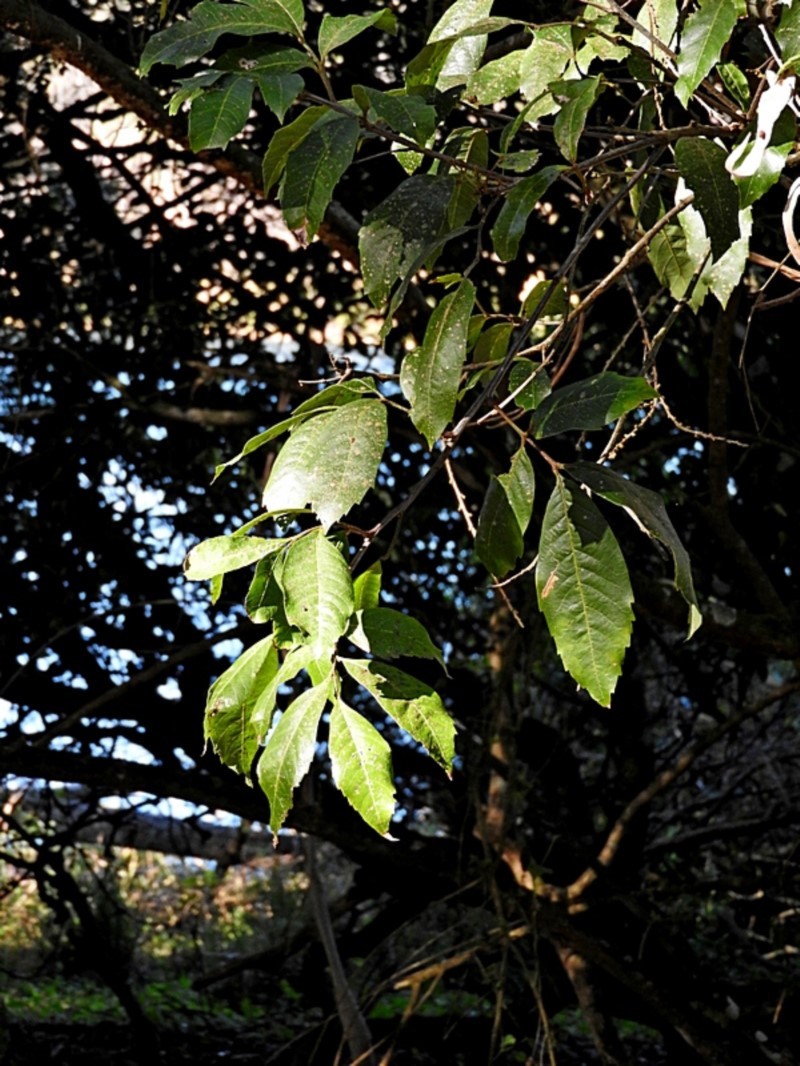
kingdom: Plantae
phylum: Tracheophyta
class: Magnoliopsida
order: Sapindales
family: Sapindaceae
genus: Alectryon
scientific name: Alectryon subcinereus
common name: Wild quince
